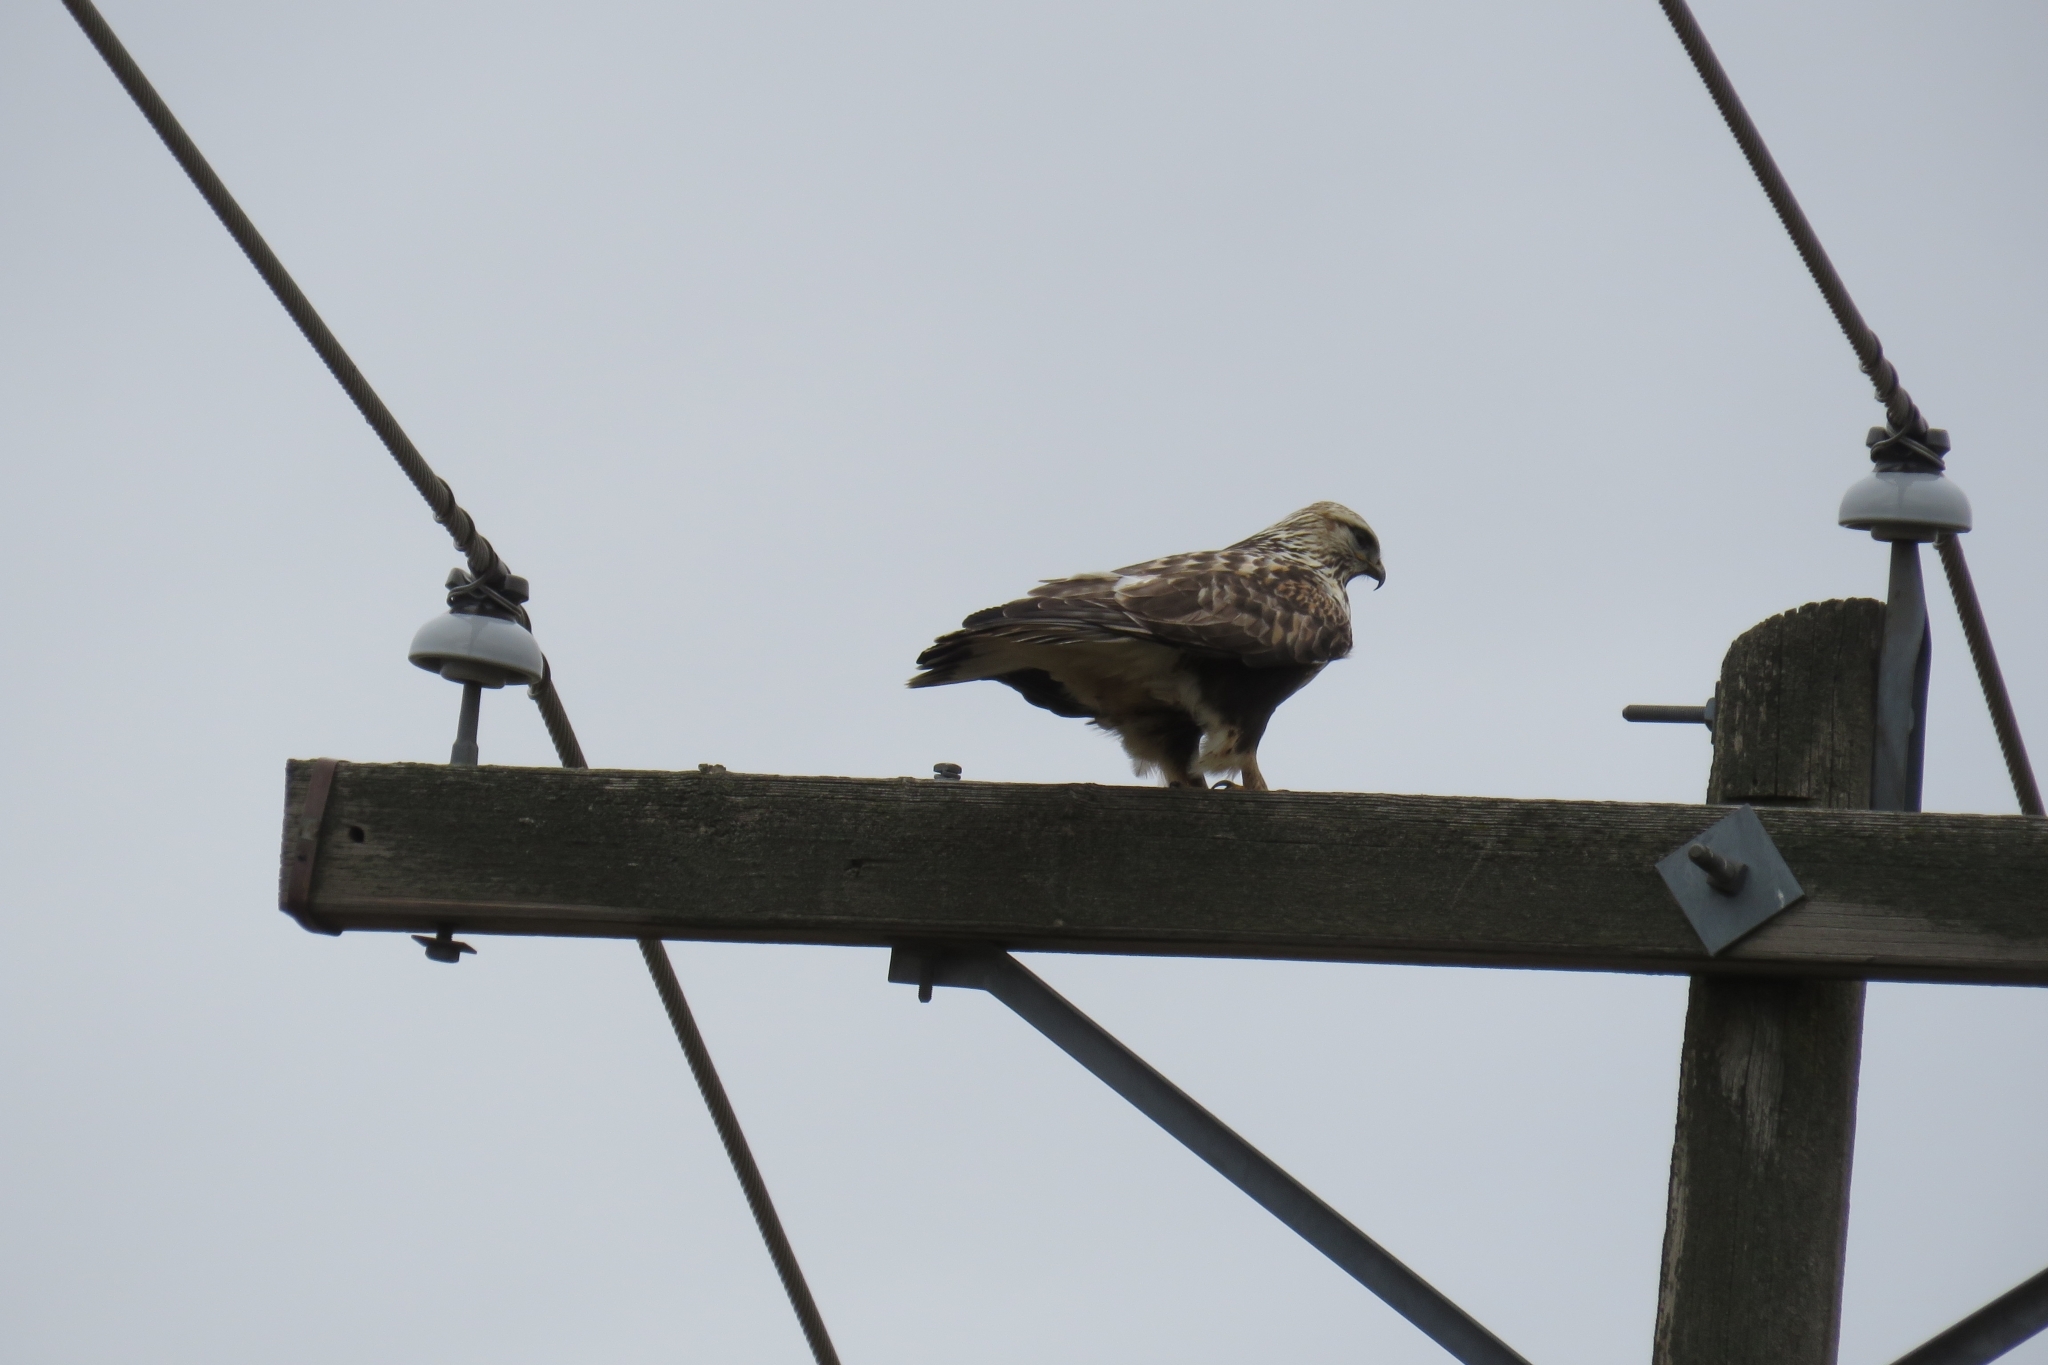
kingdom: Animalia
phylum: Chordata
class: Aves
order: Accipitriformes
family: Accipitridae
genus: Buteo
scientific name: Buteo lagopus
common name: Rough-legged buzzard
